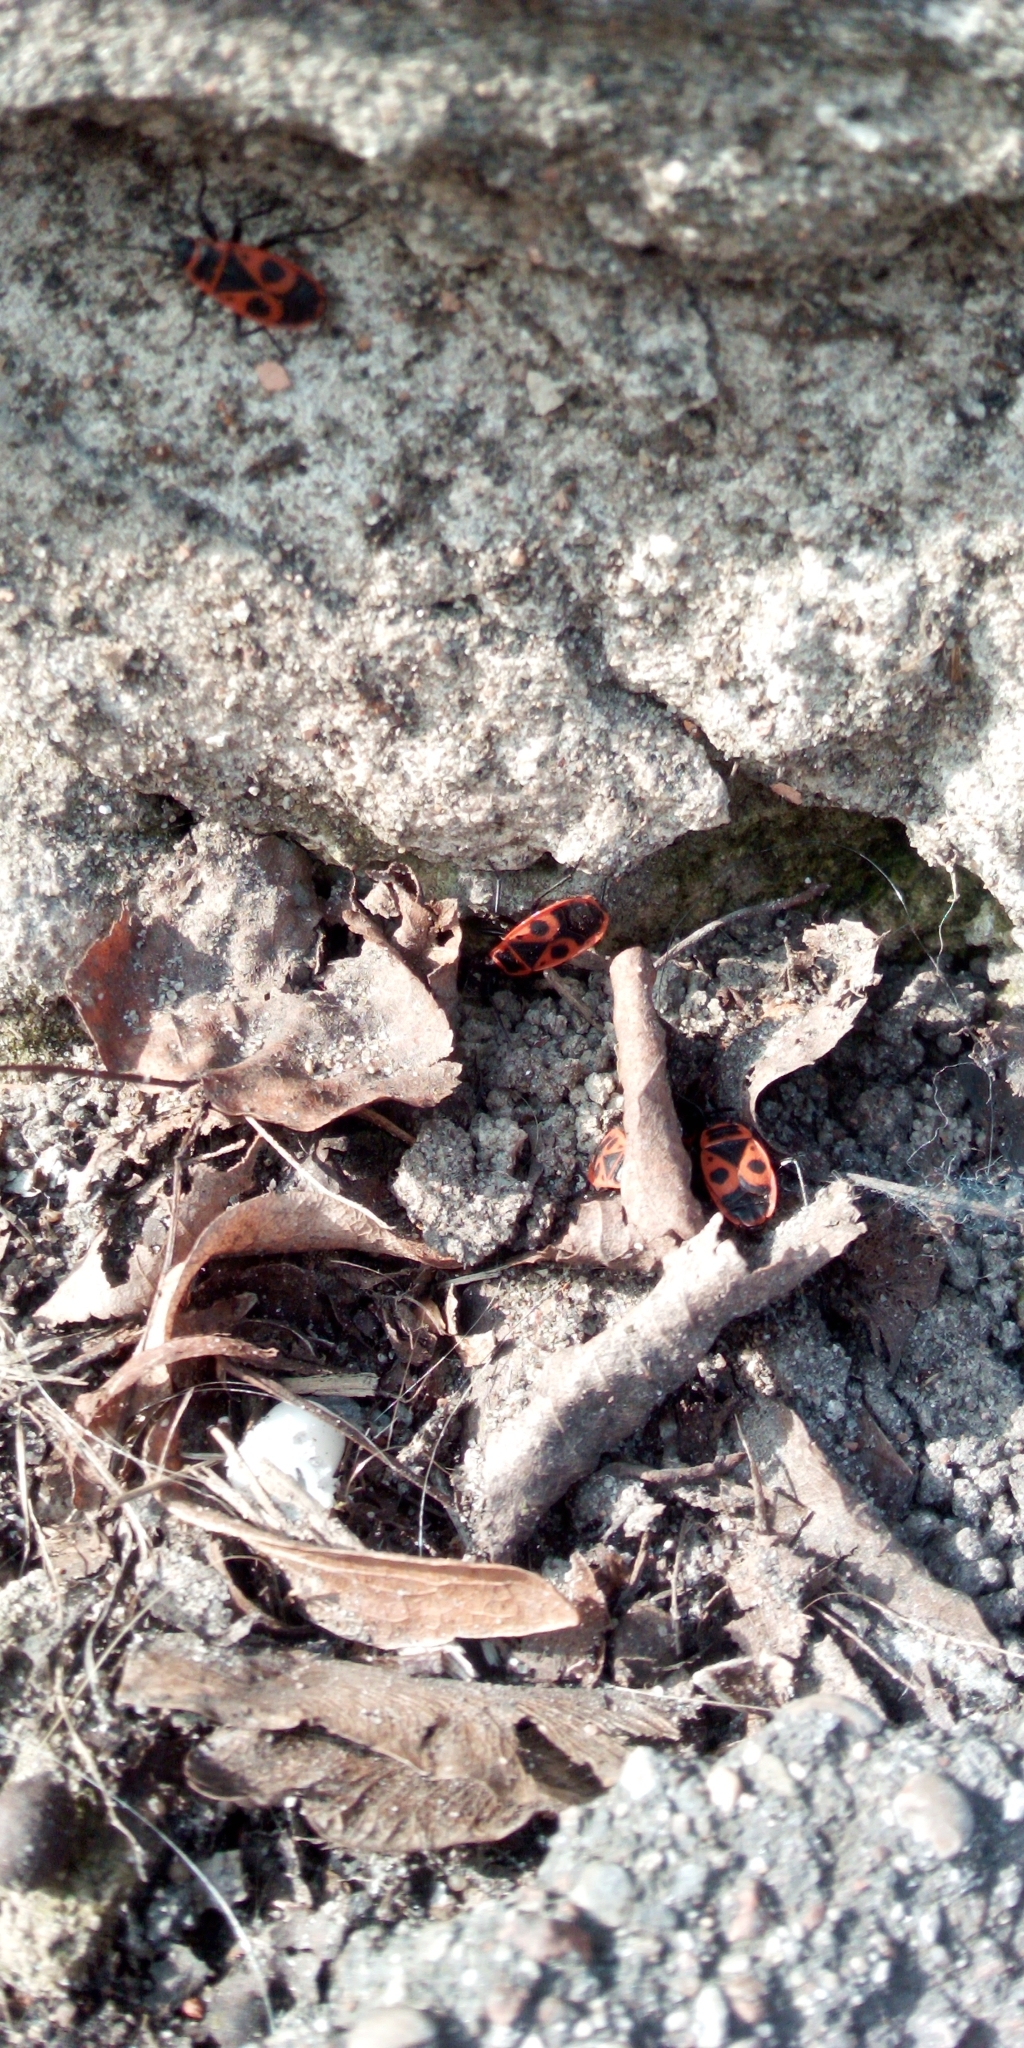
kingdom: Animalia
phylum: Arthropoda
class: Insecta
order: Hemiptera
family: Pyrrhocoridae
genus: Pyrrhocoris
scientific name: Pyrrhocoris apterus
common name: Firebug
